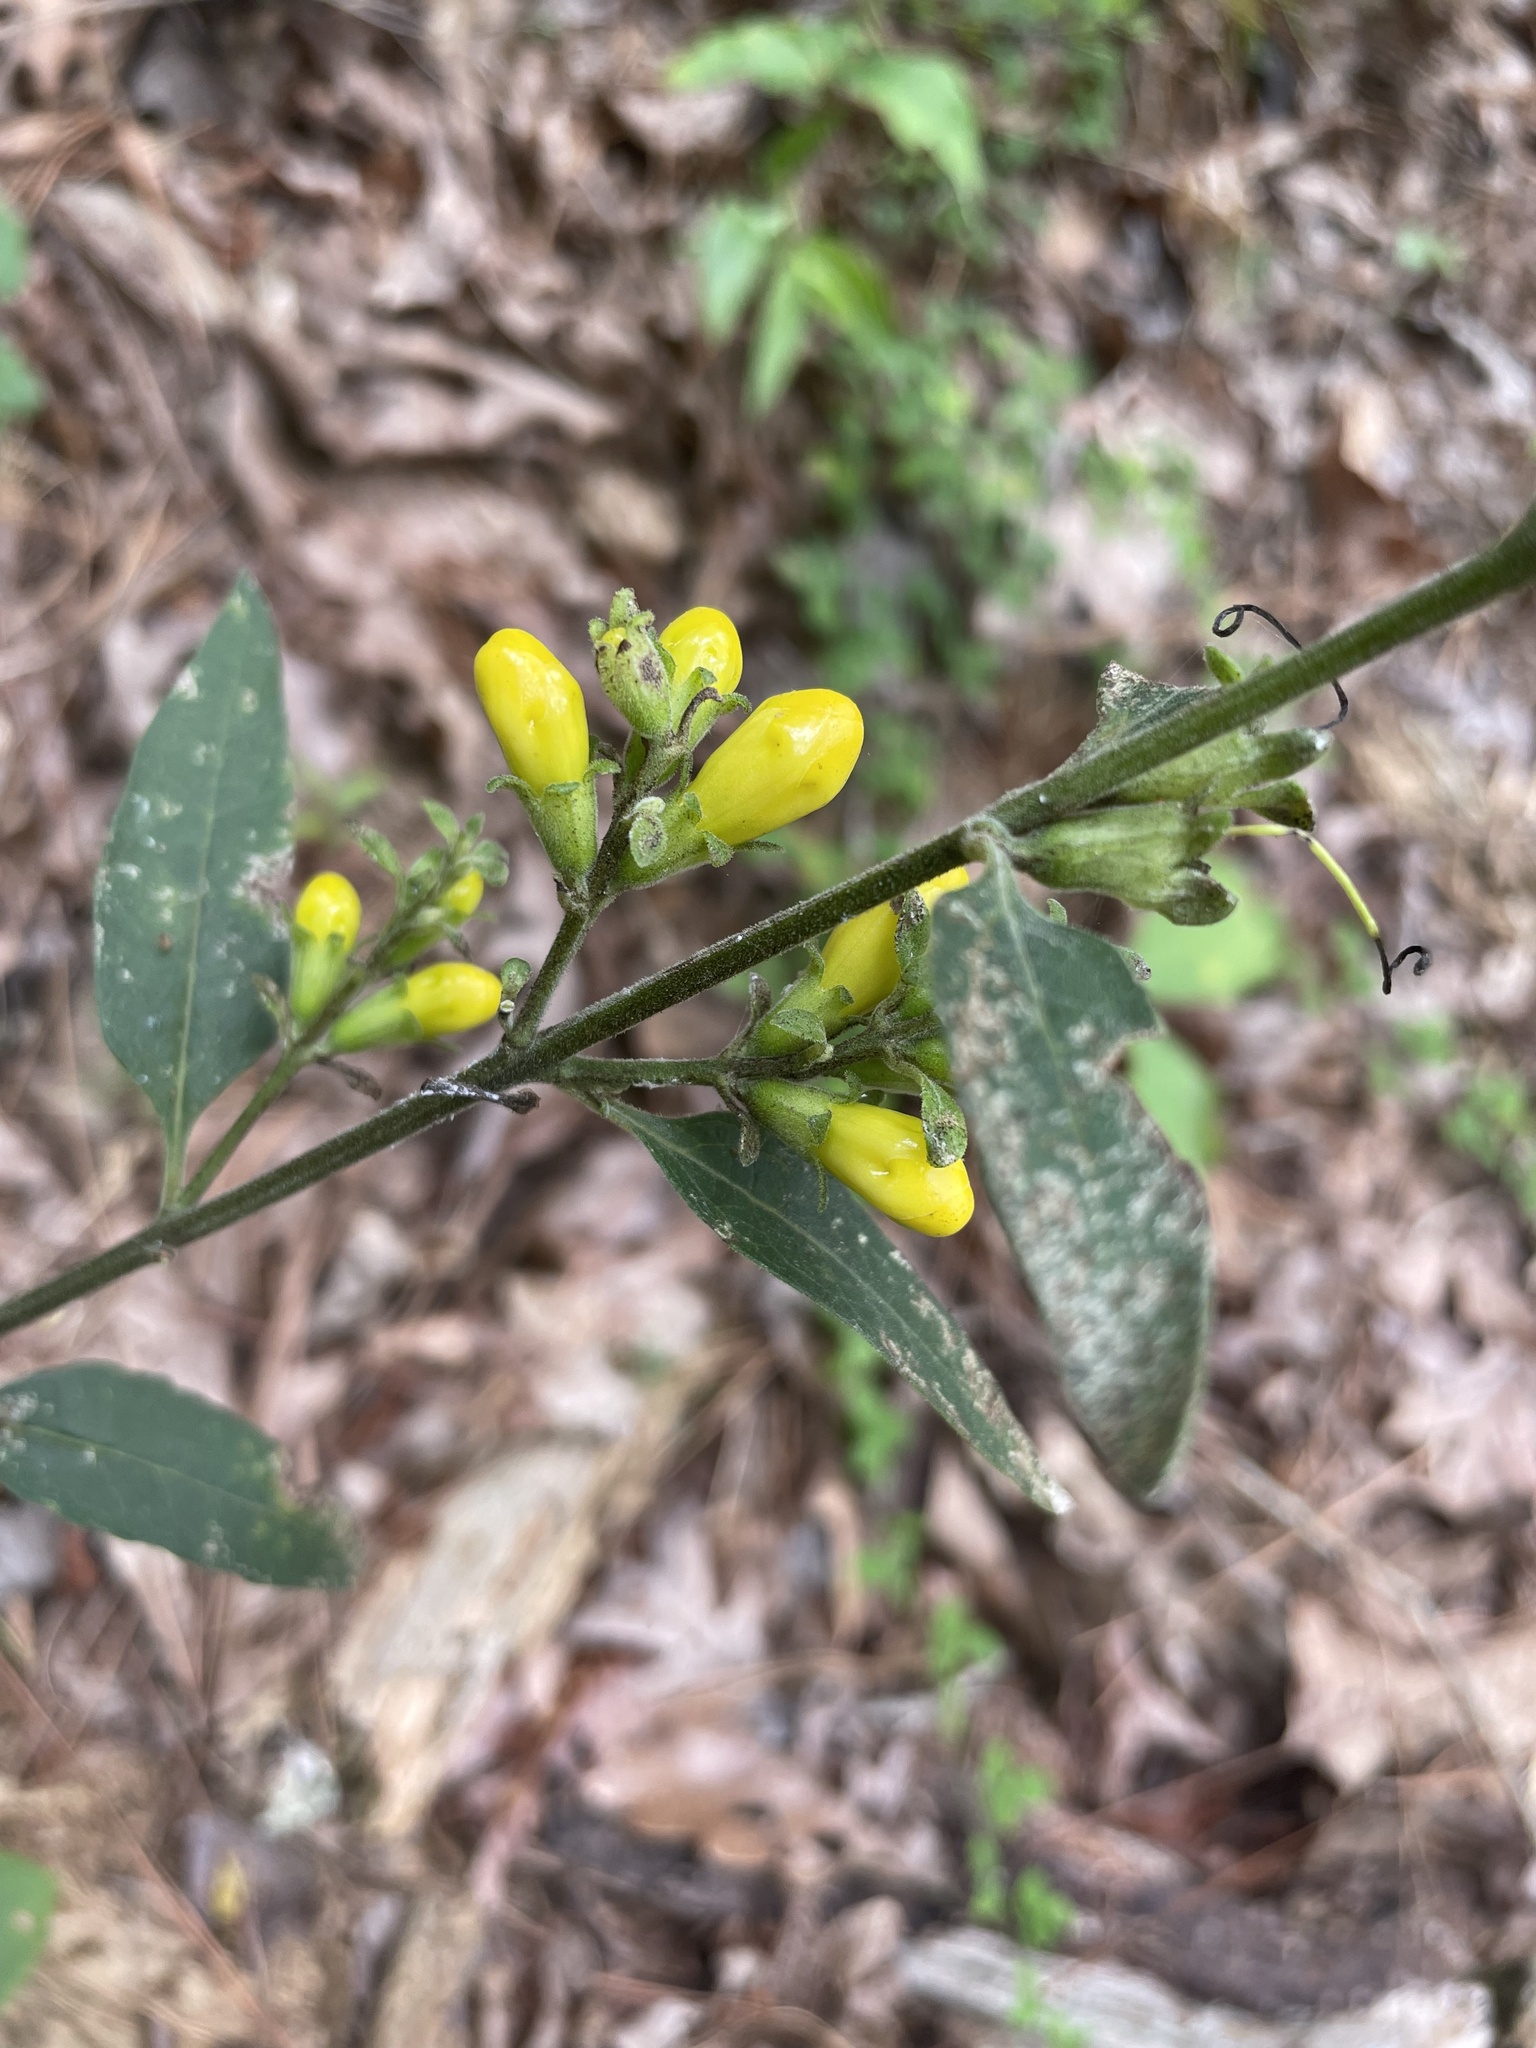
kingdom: Plantae
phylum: Tracheophyta
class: Magnoliopsida
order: Lamiales
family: Orobanchaceae
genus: Aureolaria
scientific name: Aureolaria virginica
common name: Downy false foxglove
